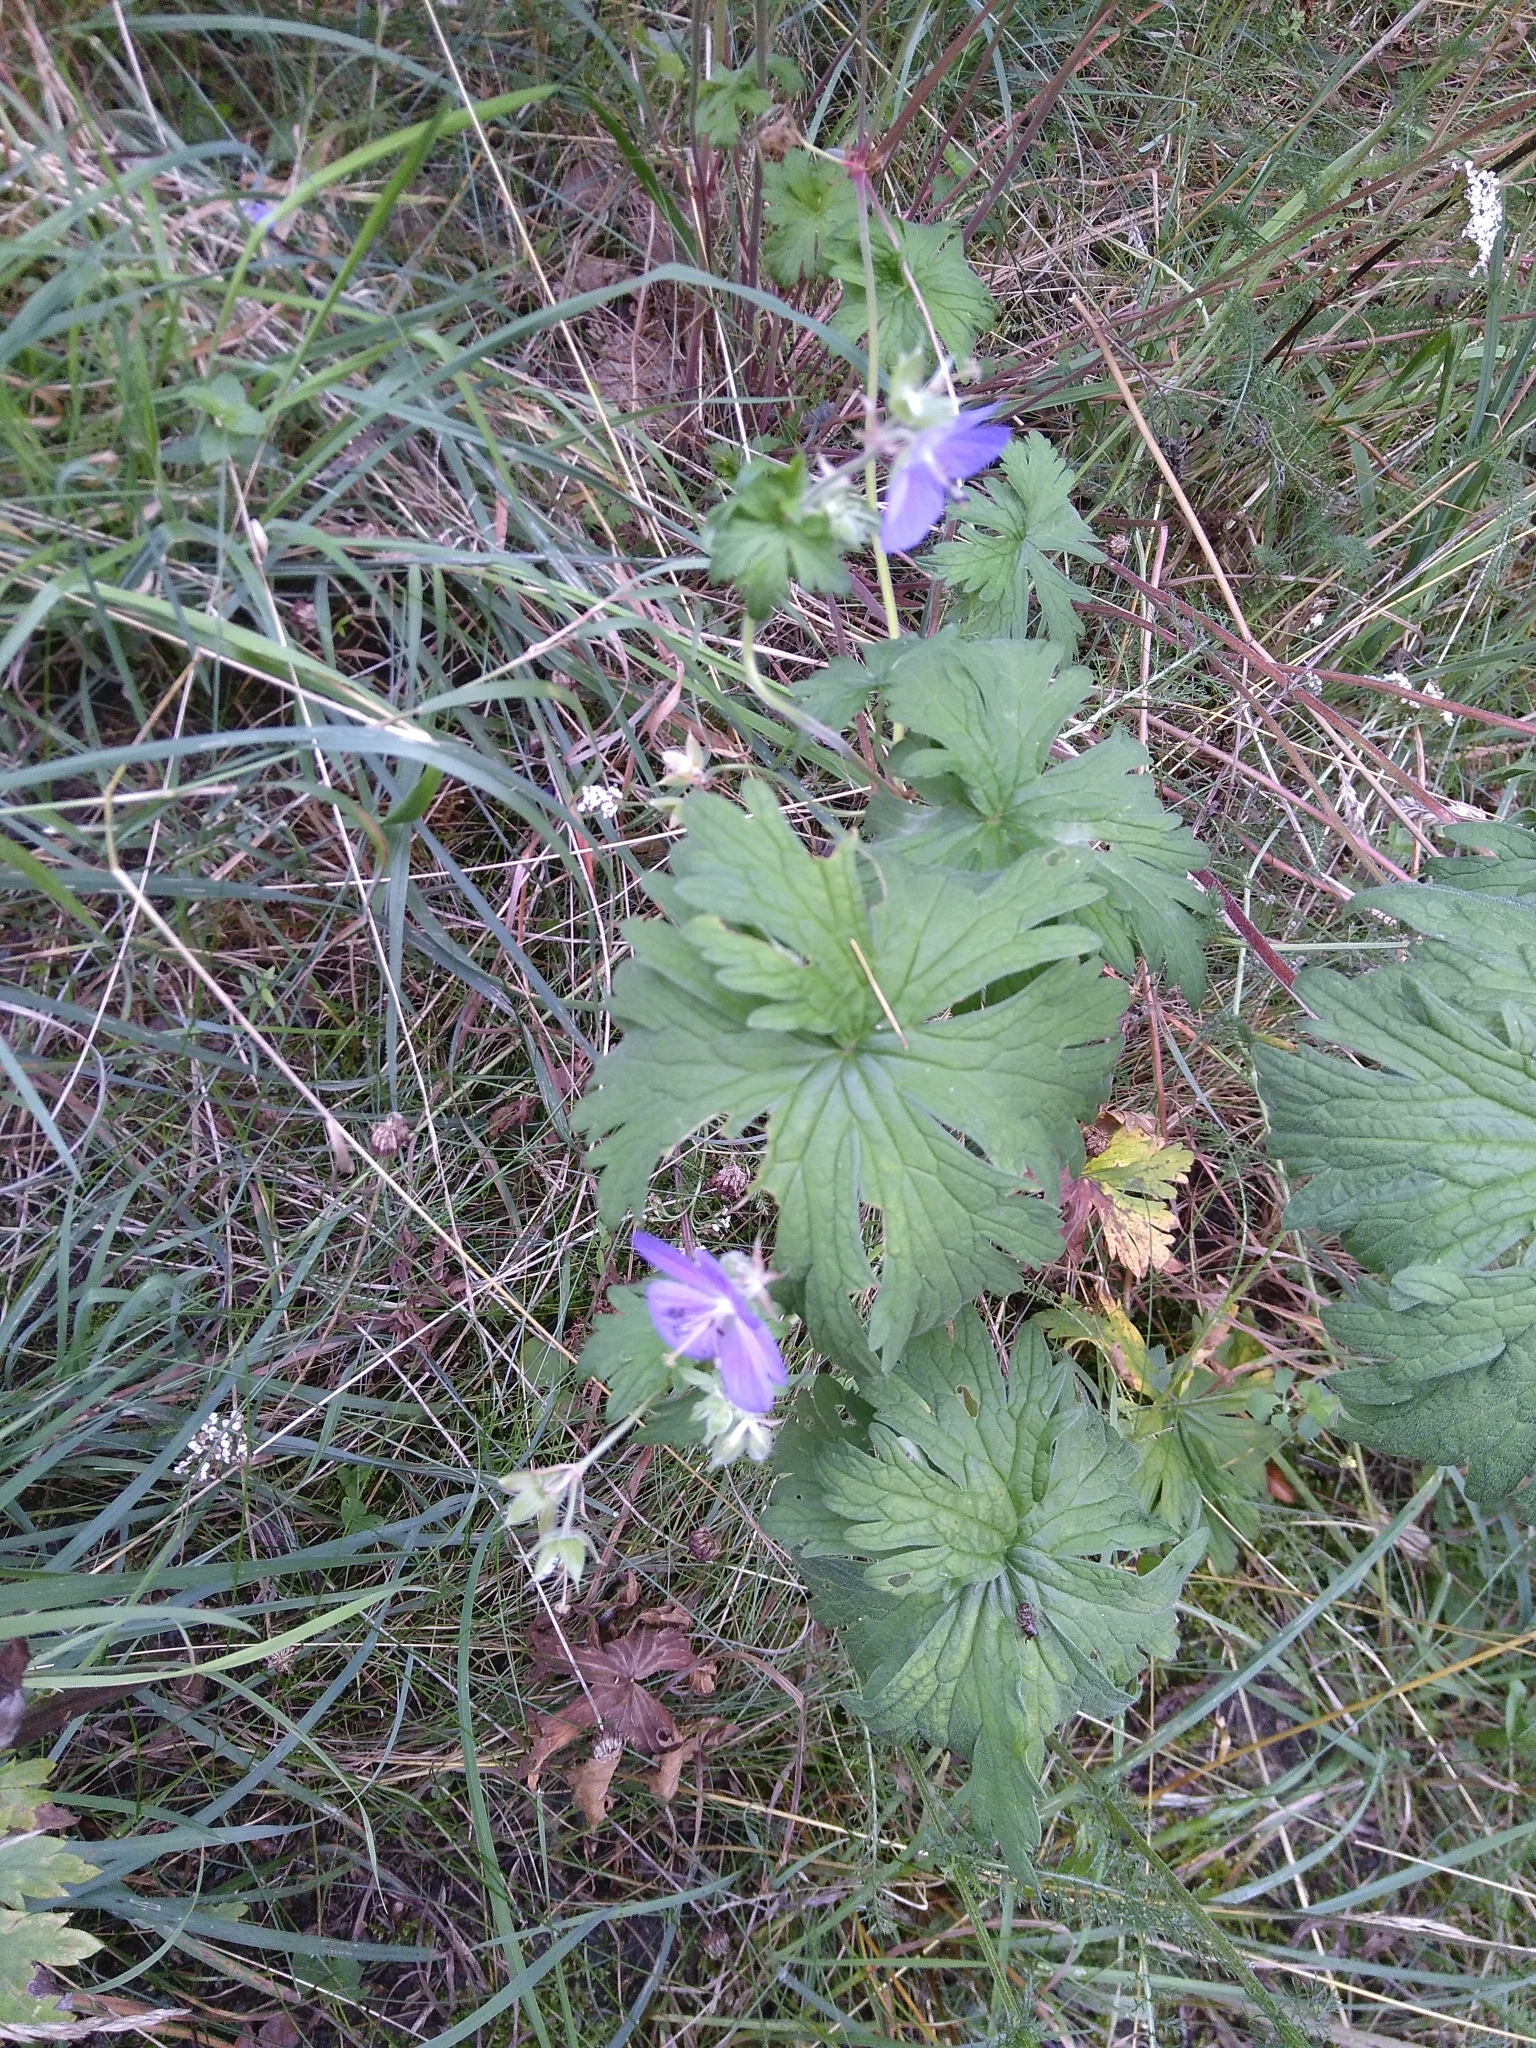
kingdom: Plantae
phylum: Tracheophyta
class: Magnoliopsida
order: Geraniales
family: Geraniaceae
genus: Geranium
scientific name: Geranium pratense
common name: Meadow crane's-bill
